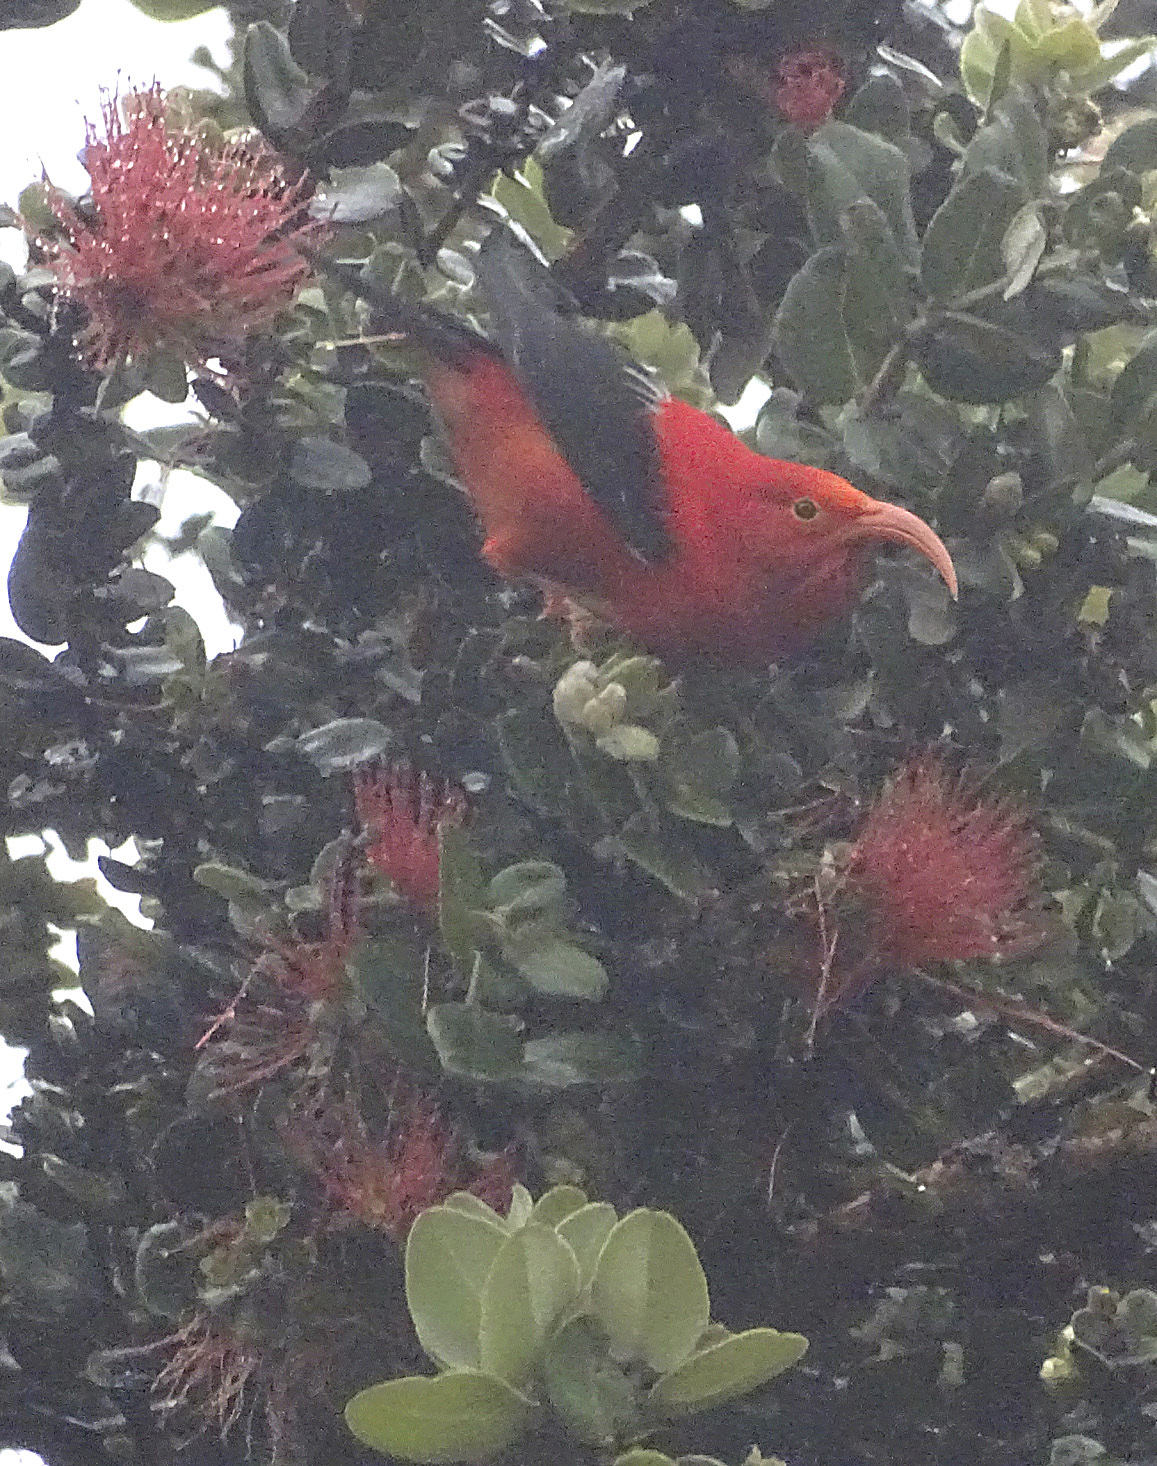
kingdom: Animalia
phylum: Chordata
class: Aves
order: Passeriformes
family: Fringillidae
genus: Vestiaria
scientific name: Vestiaria coccinea
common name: Iiwi
